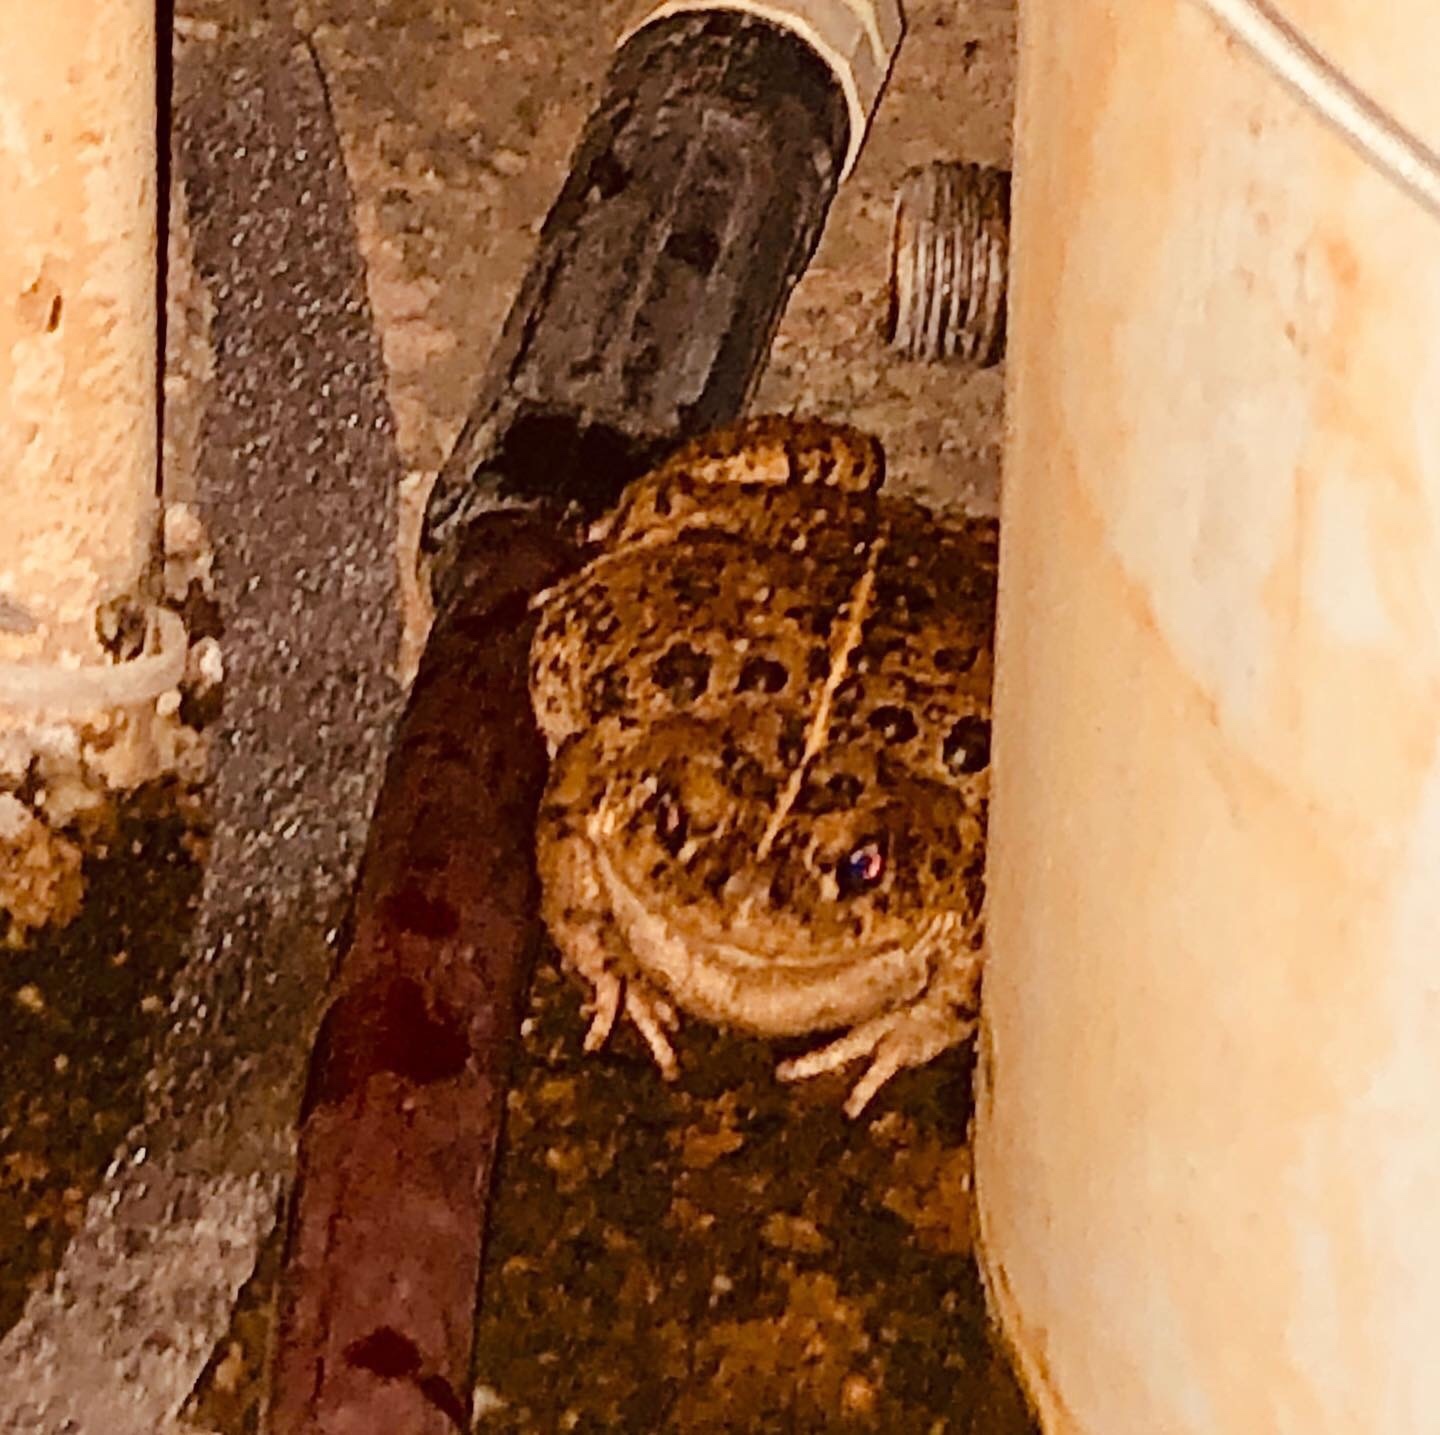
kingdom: Animalia
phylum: Chordata
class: Amphibia
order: Anura
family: Bufonidae
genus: Anaxyrus
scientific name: Anaxyrus boreas
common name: Western toad
